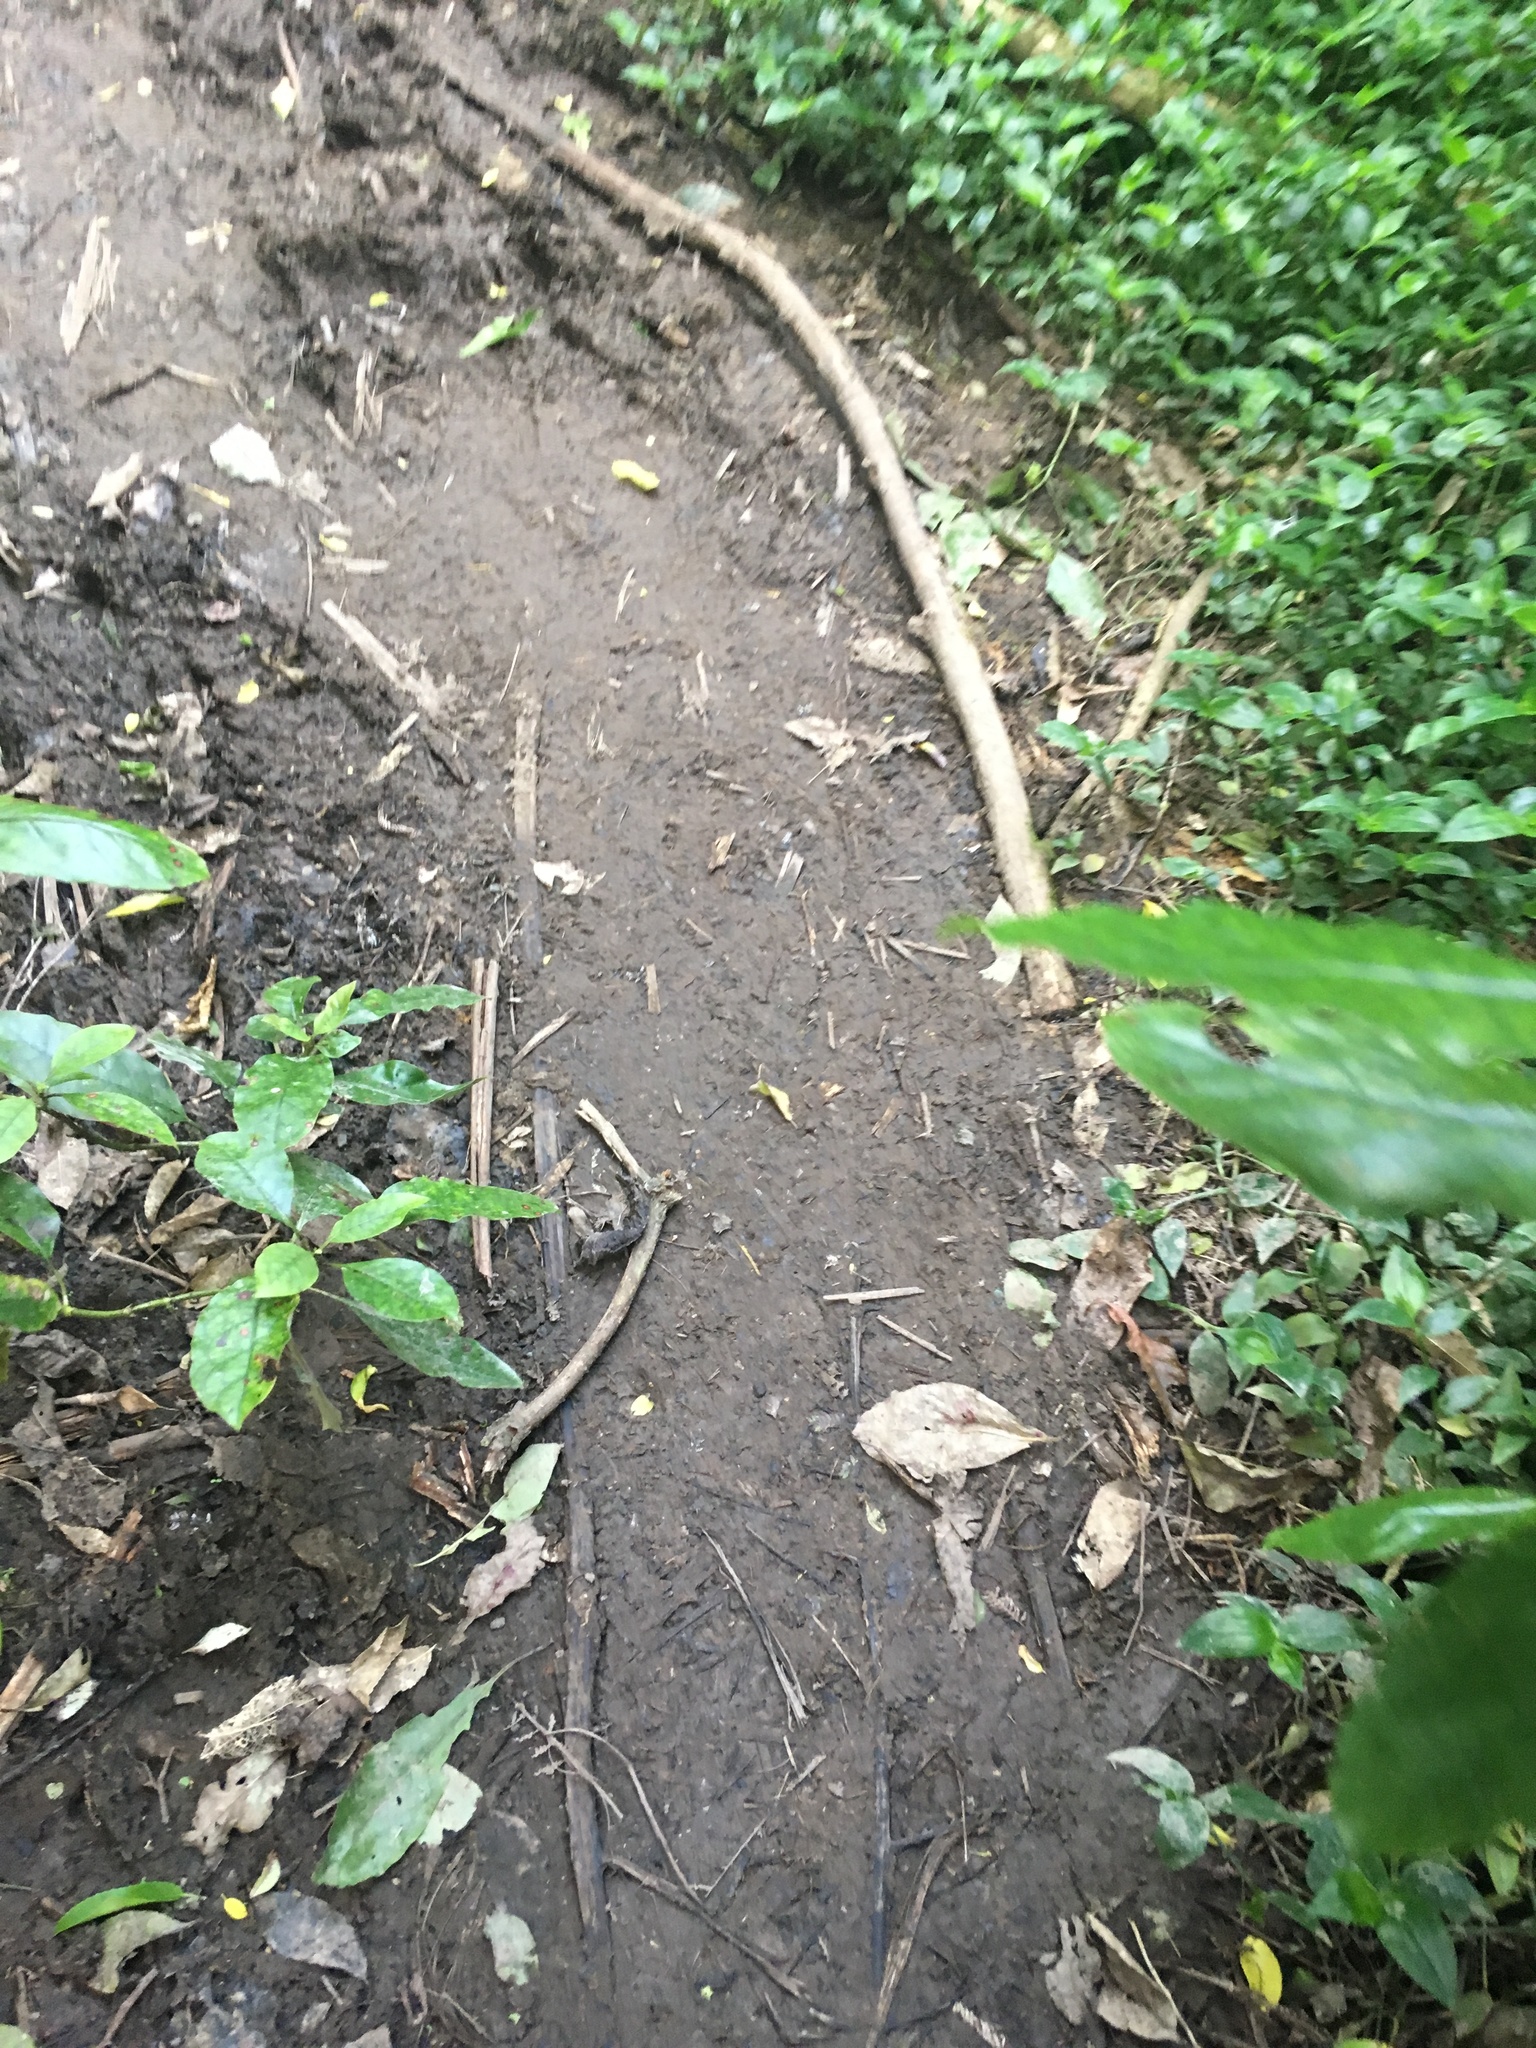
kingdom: Plantae
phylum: Tracheophyta
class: Liliopsida
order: Commelinales
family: Commelinaceae
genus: Tradescantia
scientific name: Tradescantia fluminensis
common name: Wandering-jew
